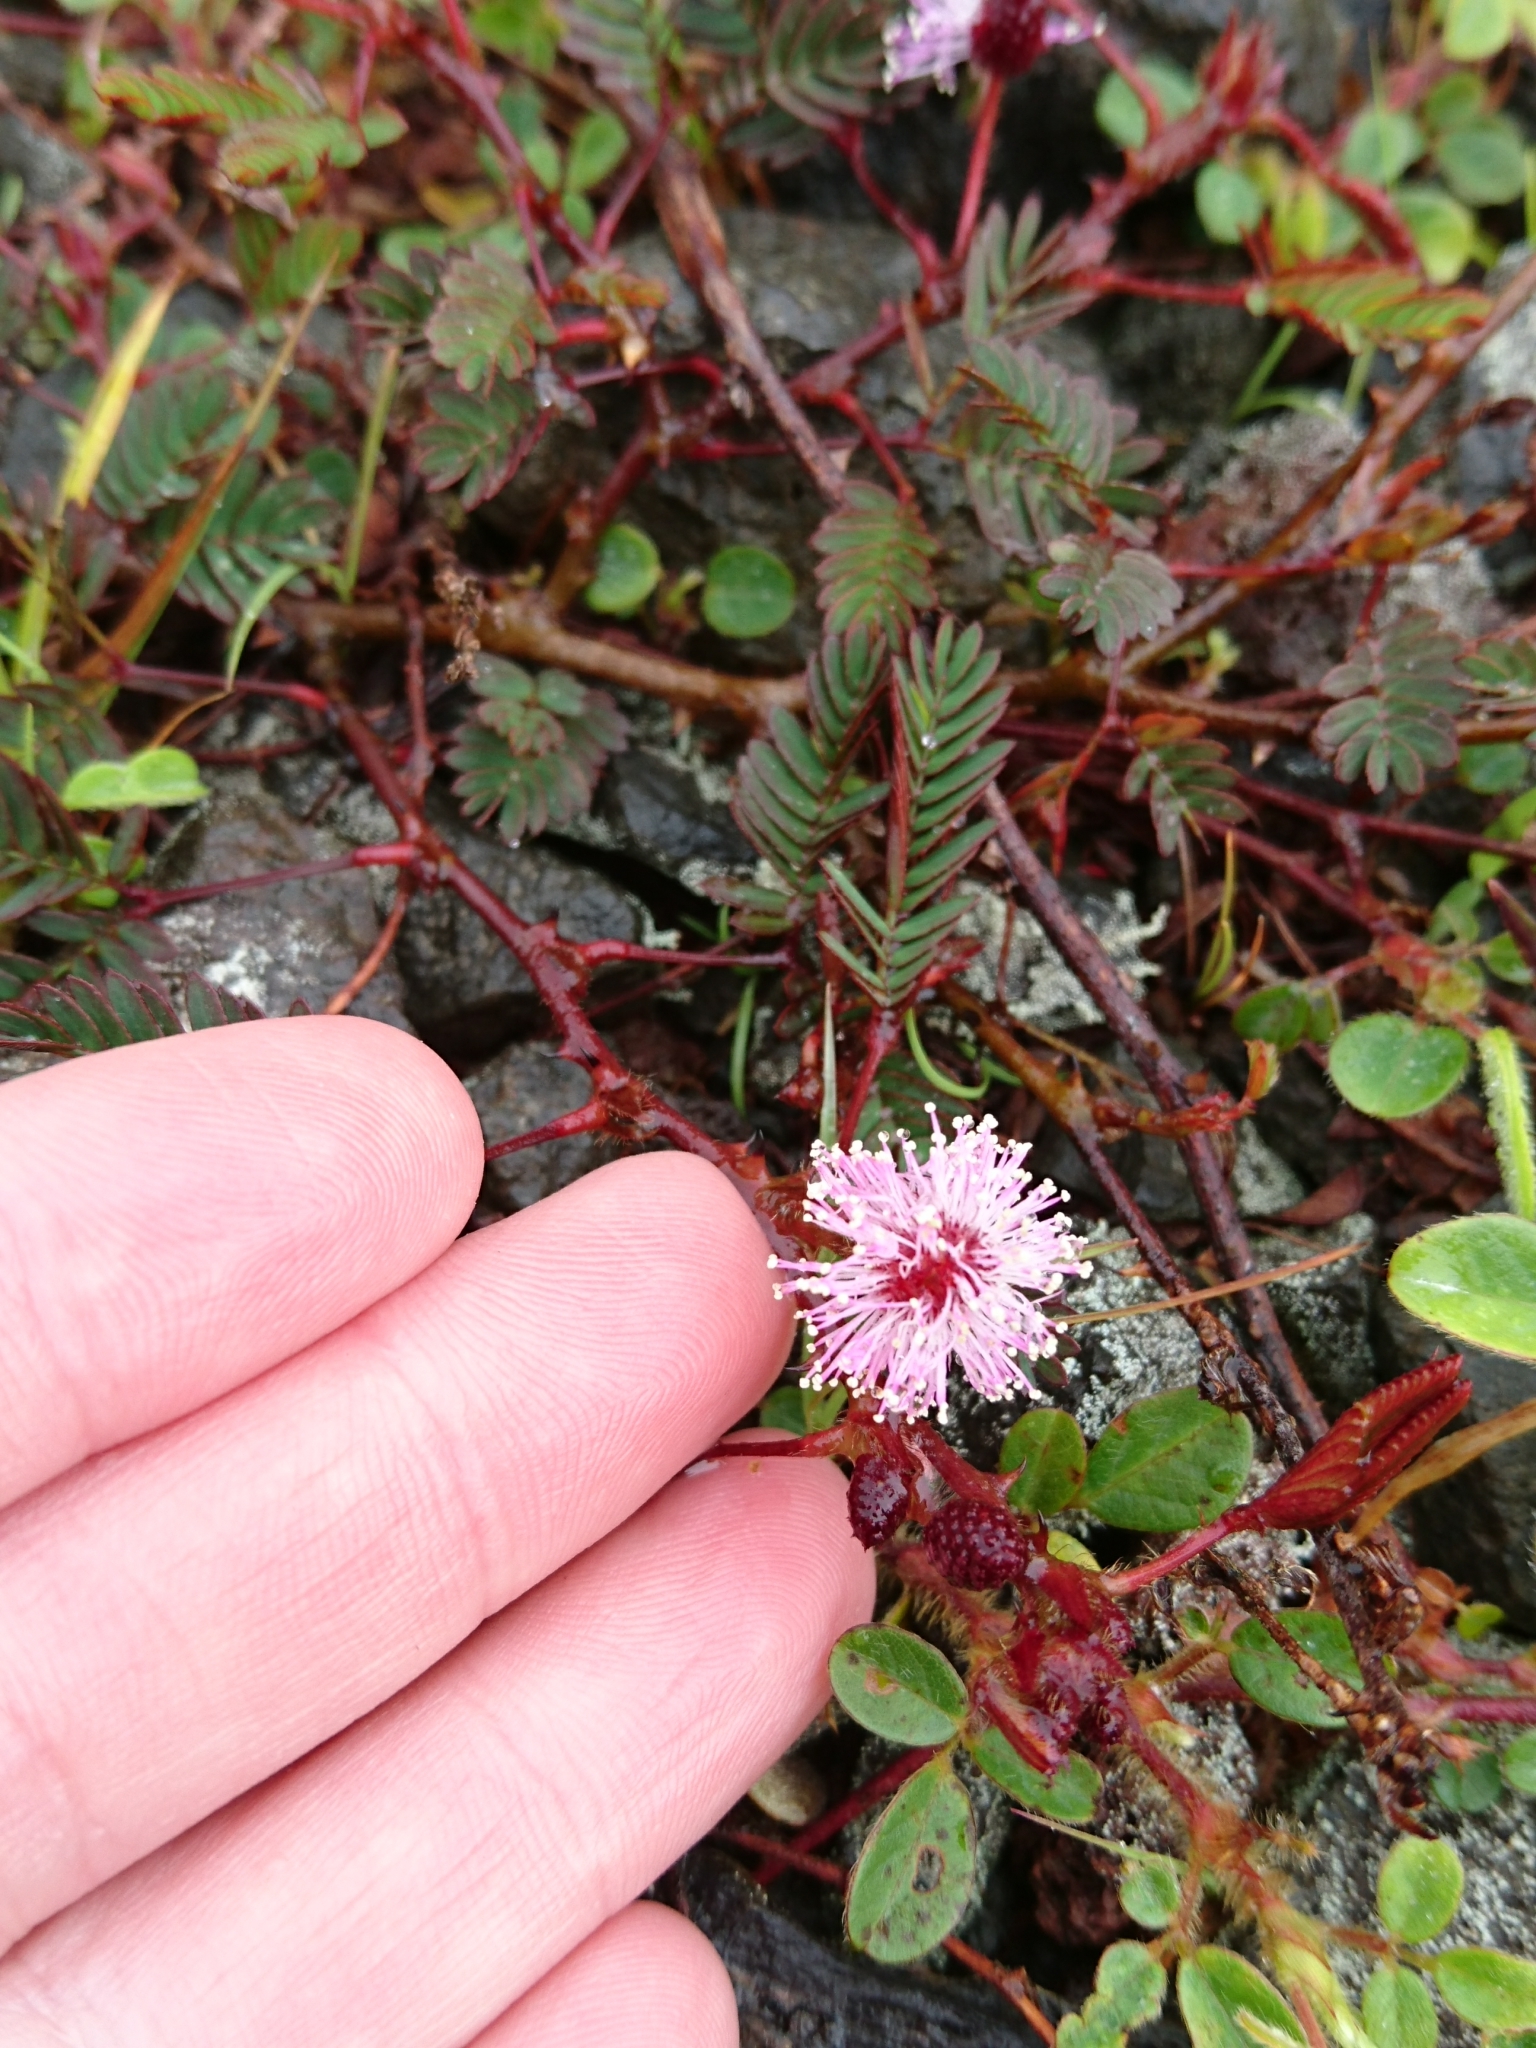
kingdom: Plantae
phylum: Tracheophyta
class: Magnoliopsida
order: Fabales
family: Fabaceae
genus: Mimosa
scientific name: Mimosa pudica
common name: Sensitive plant
